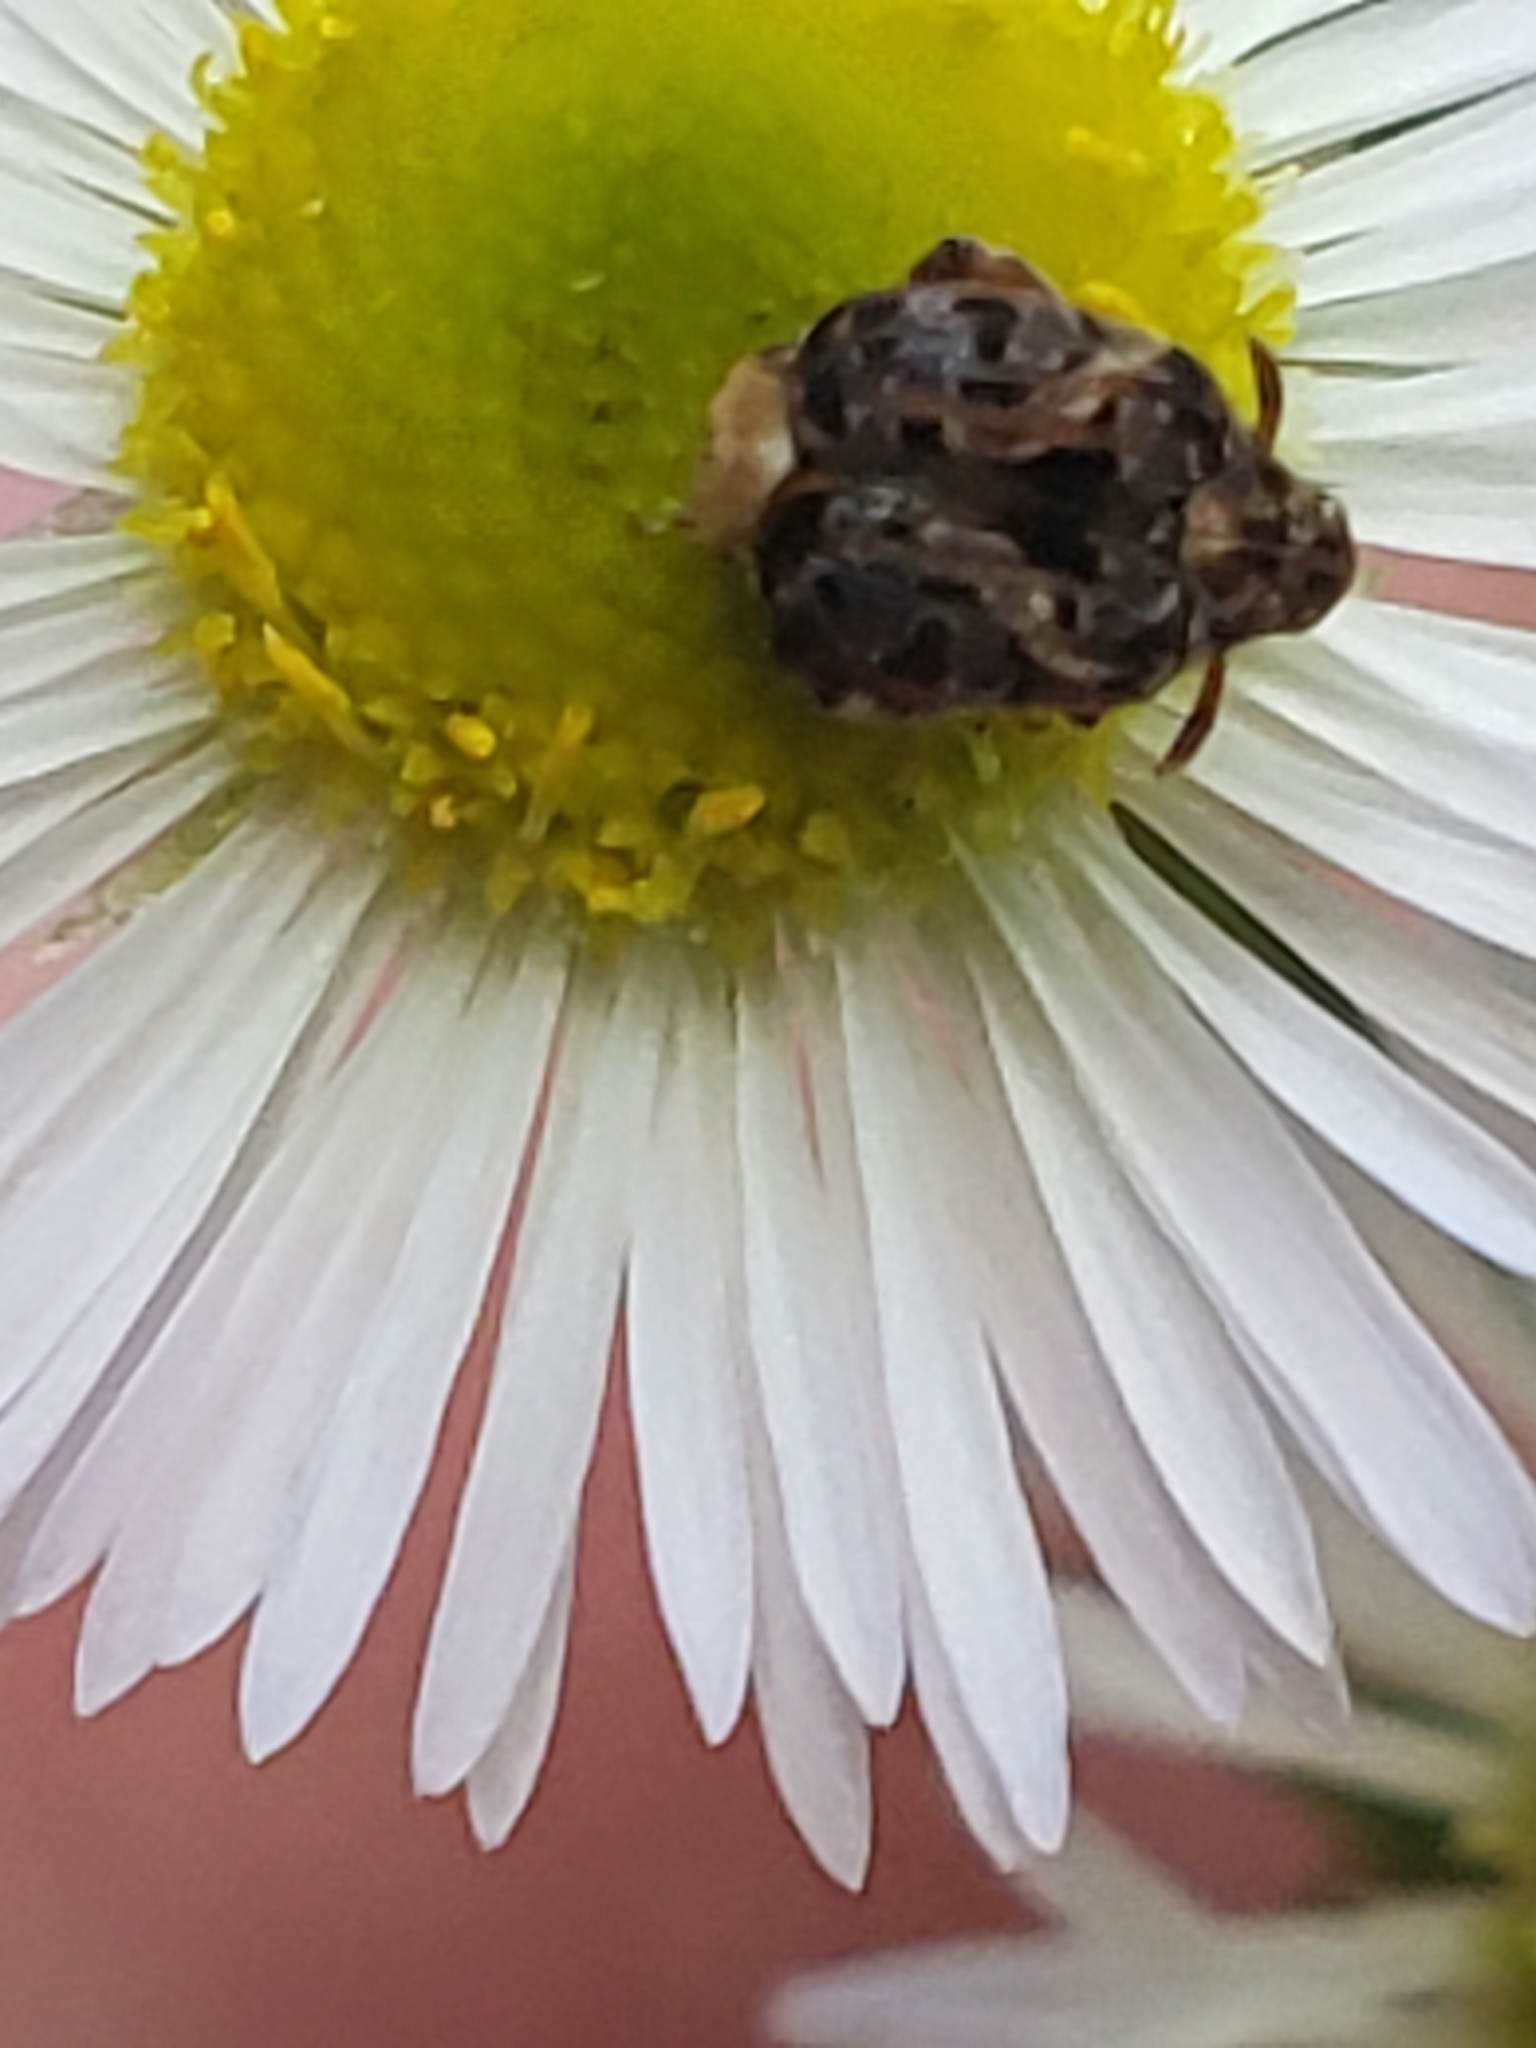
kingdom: Animalia
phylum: Arthropoda
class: Insecta
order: Coleoptera
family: Chrysomelidae
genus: Gibbobruchus
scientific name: Gibbobruchus mimus
